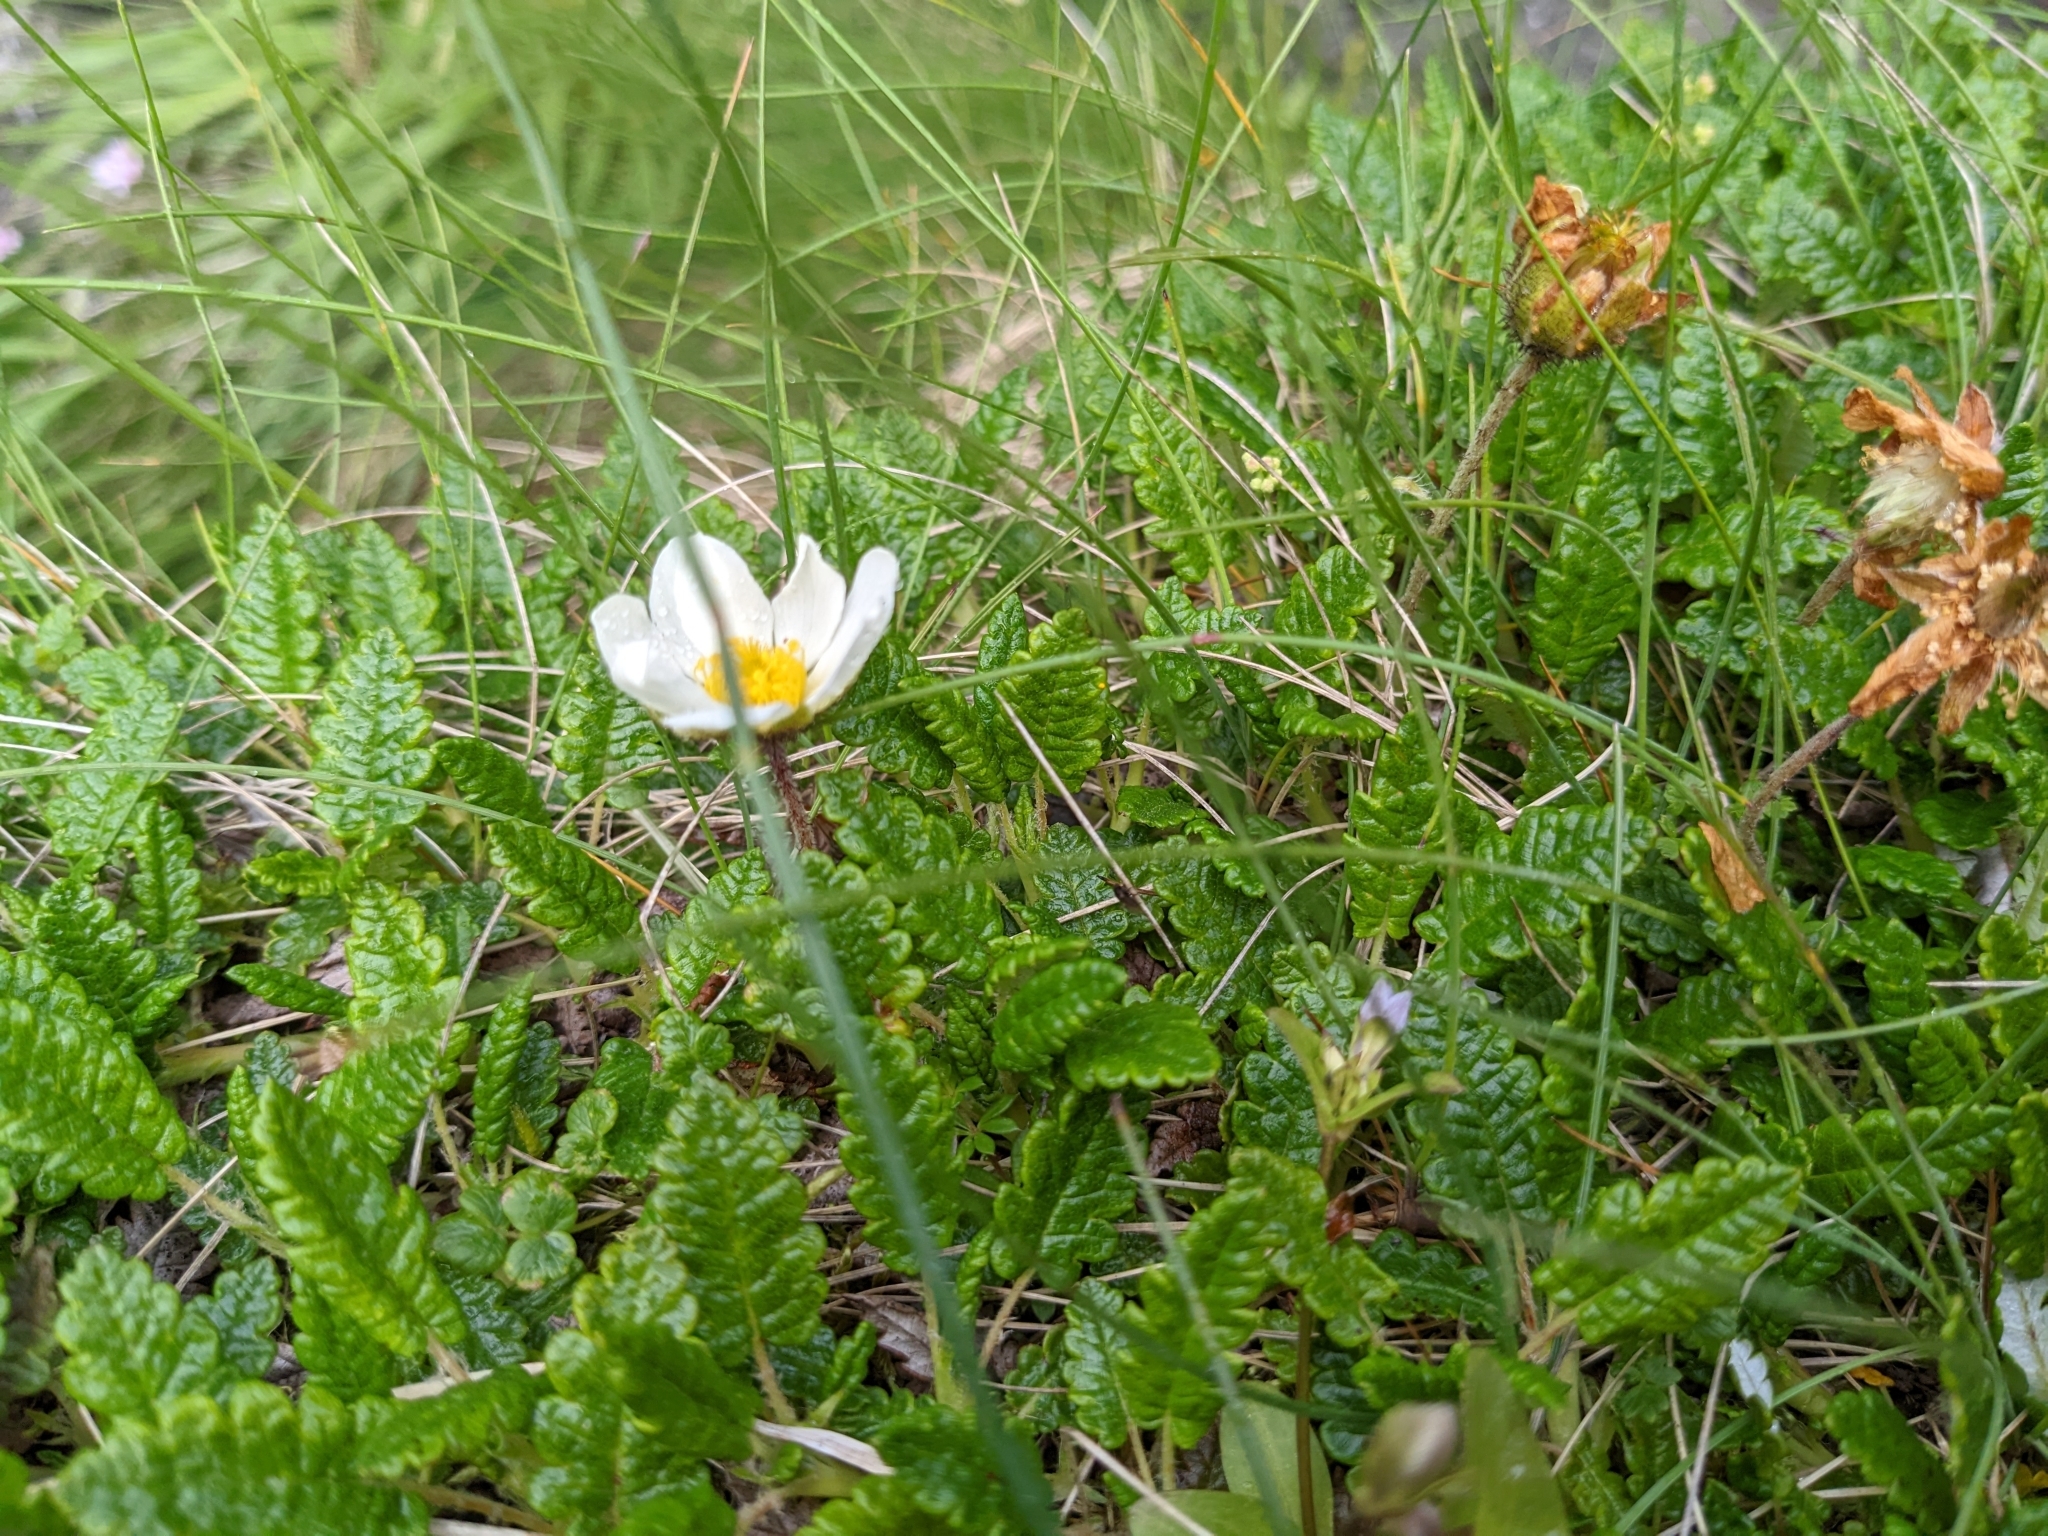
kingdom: Plantae
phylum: Tracheophyta
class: Magnoliopsida
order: Rosales
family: Rosaceae
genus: Dryas
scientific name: Dryas octopetala
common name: Eight-petal mountain-avens
